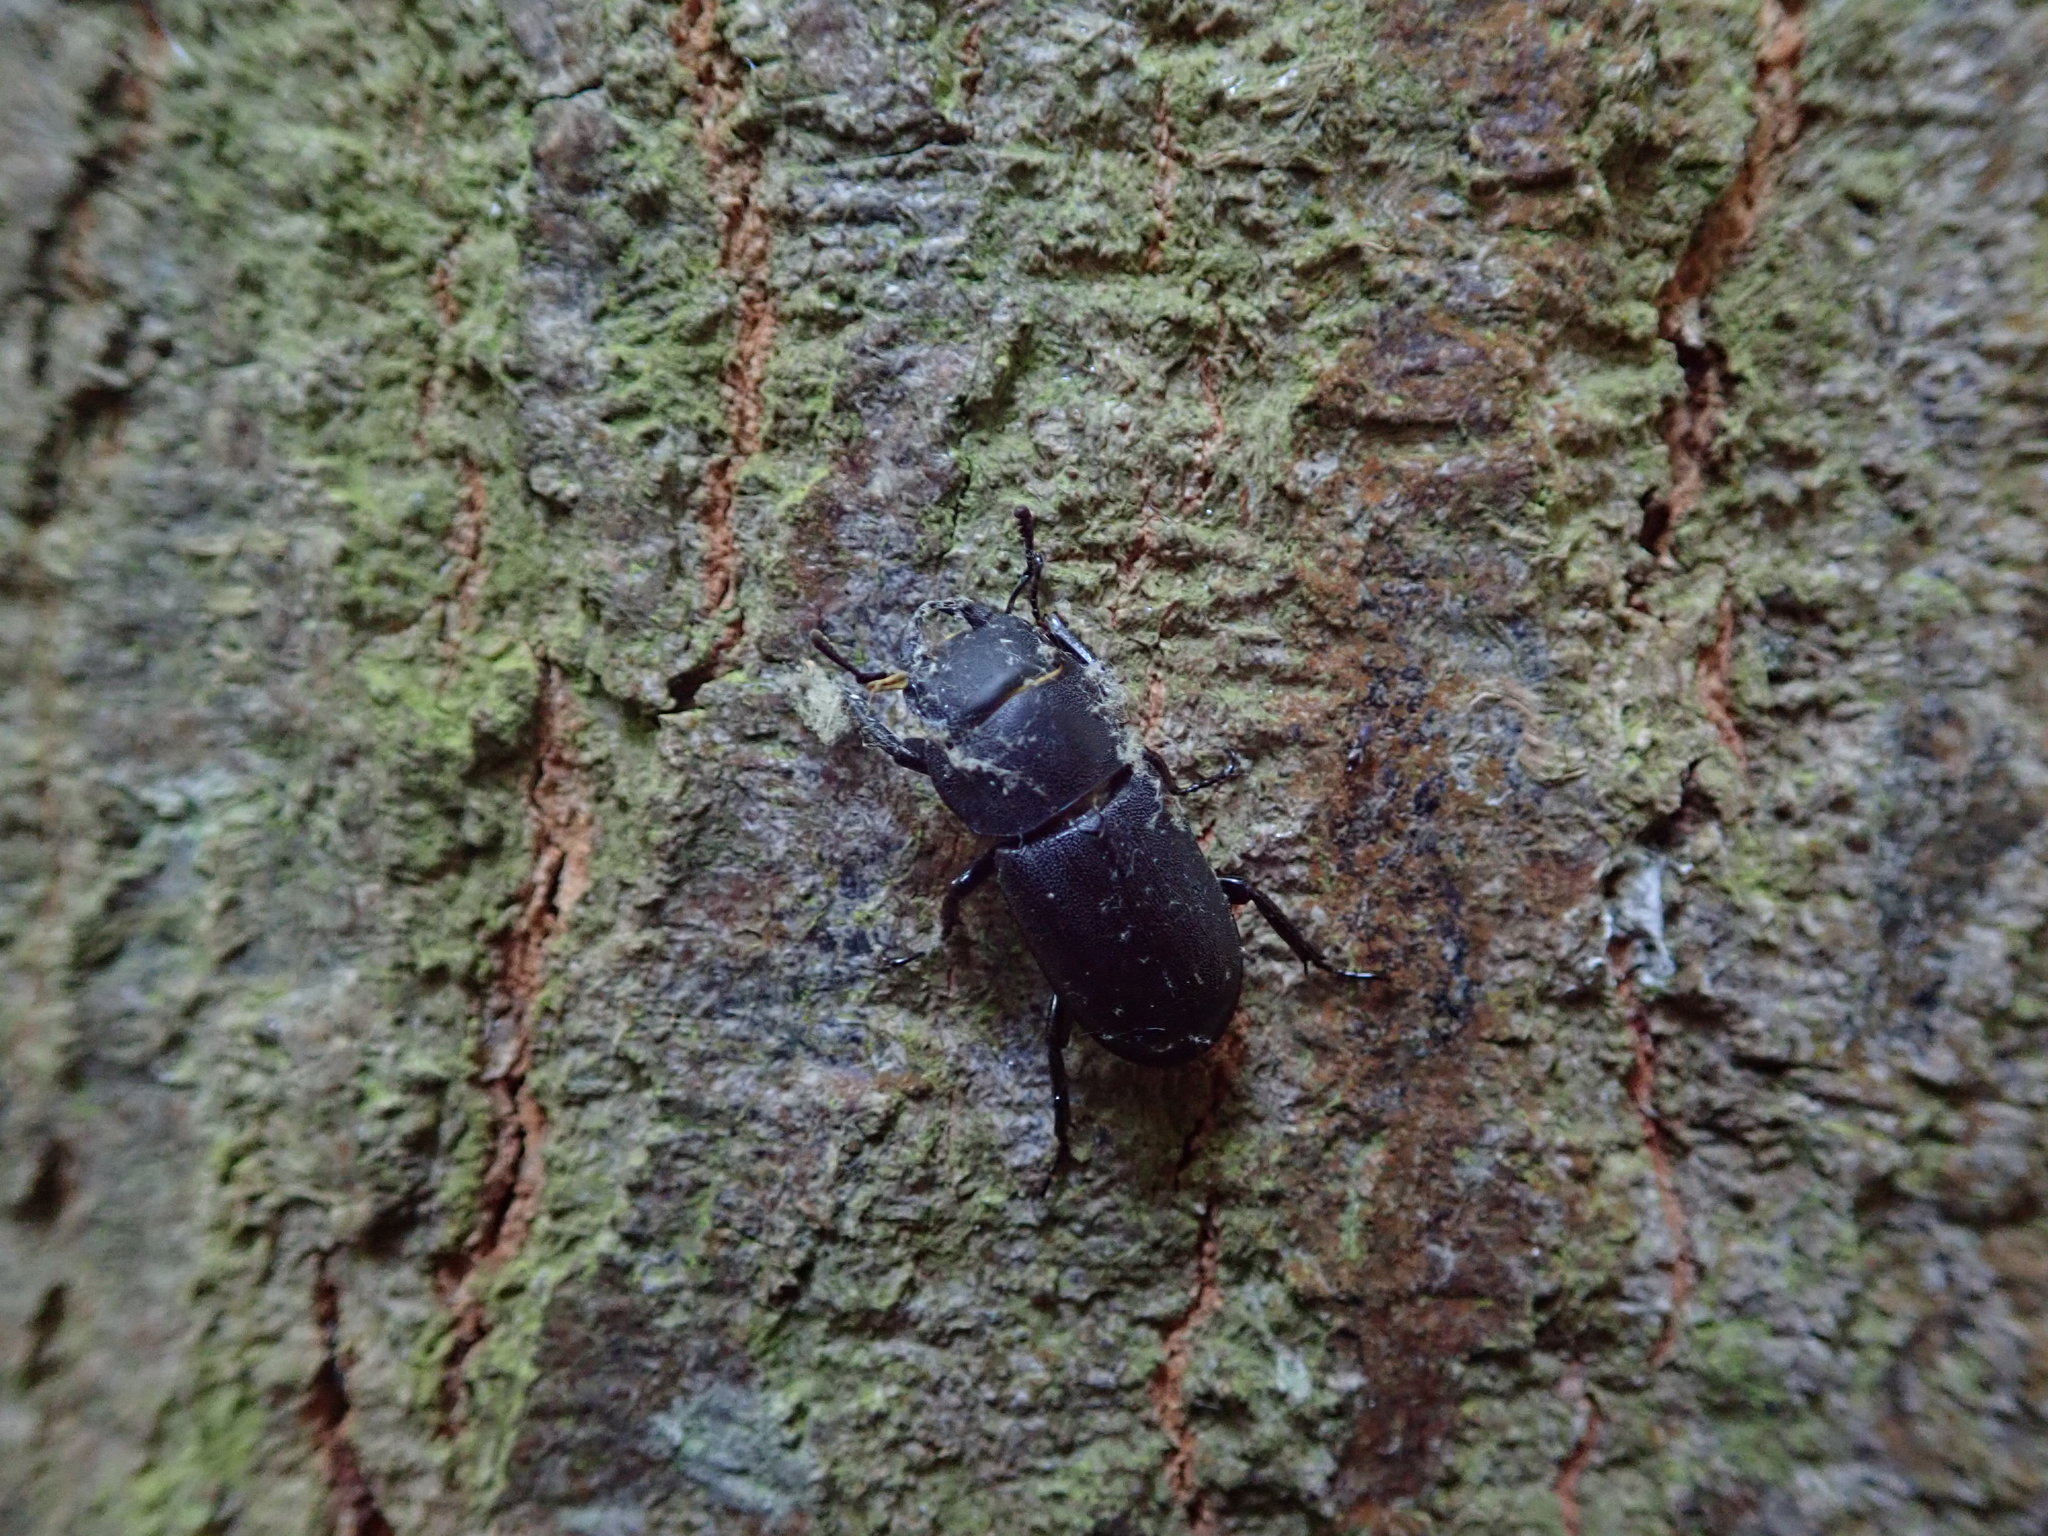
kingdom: Animalia
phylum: Arthropoda
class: Insecta
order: Coleoptera
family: Lucanidae
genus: Dorcus
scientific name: Dorcus parallelipipedus
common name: Lesser stag beetle
